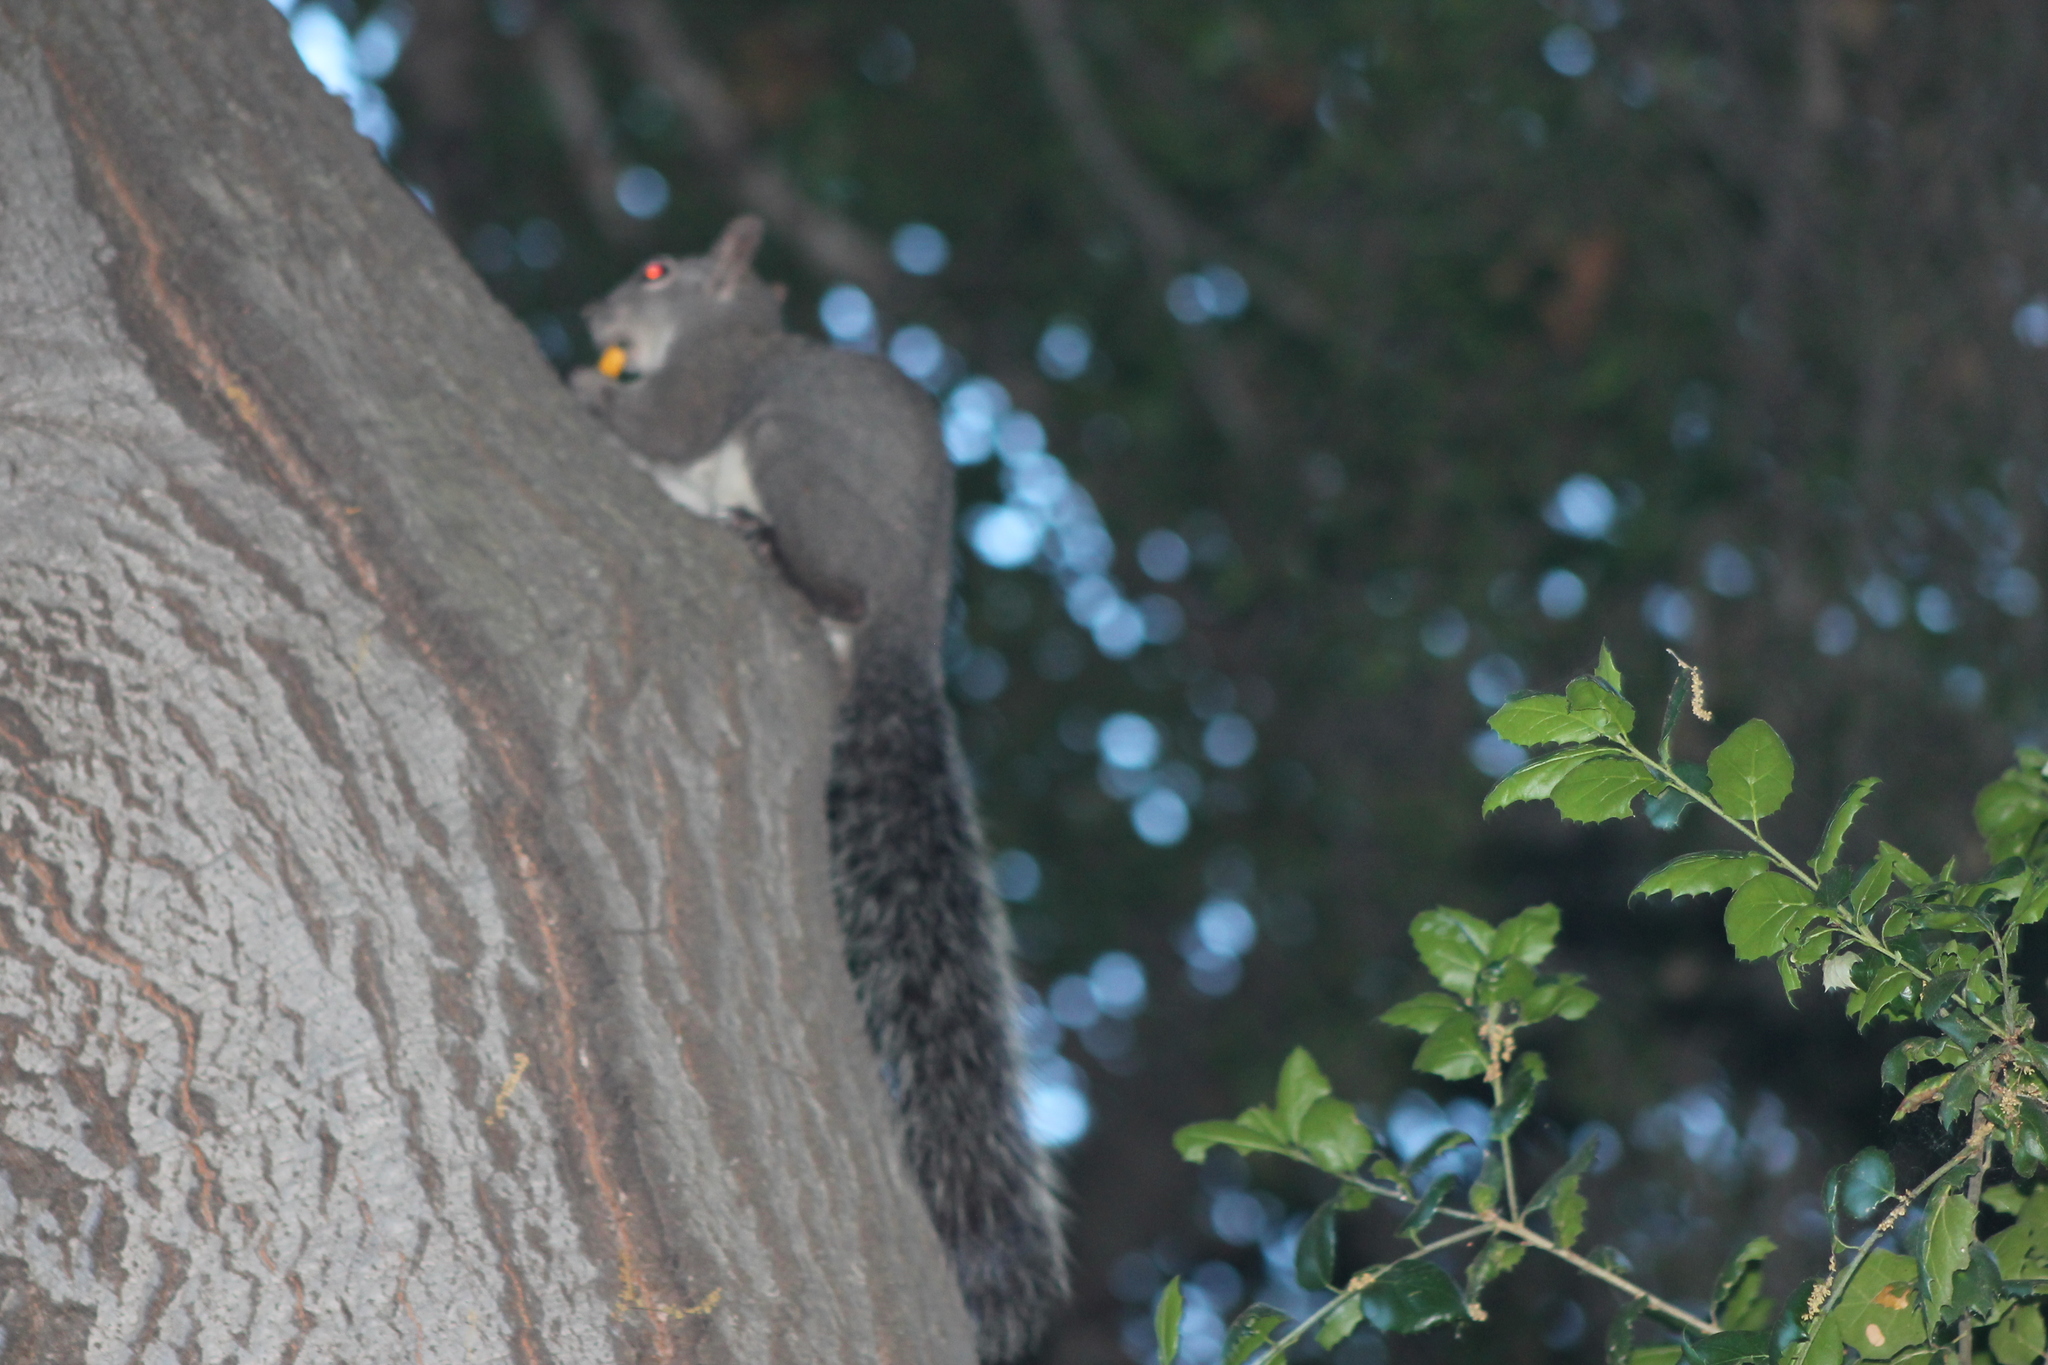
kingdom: Animalia
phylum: Chordata
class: Mammalia
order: Rodentia
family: Sciuridae
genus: Sciurus
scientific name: Sciurus griseus
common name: Western gray squirrel
